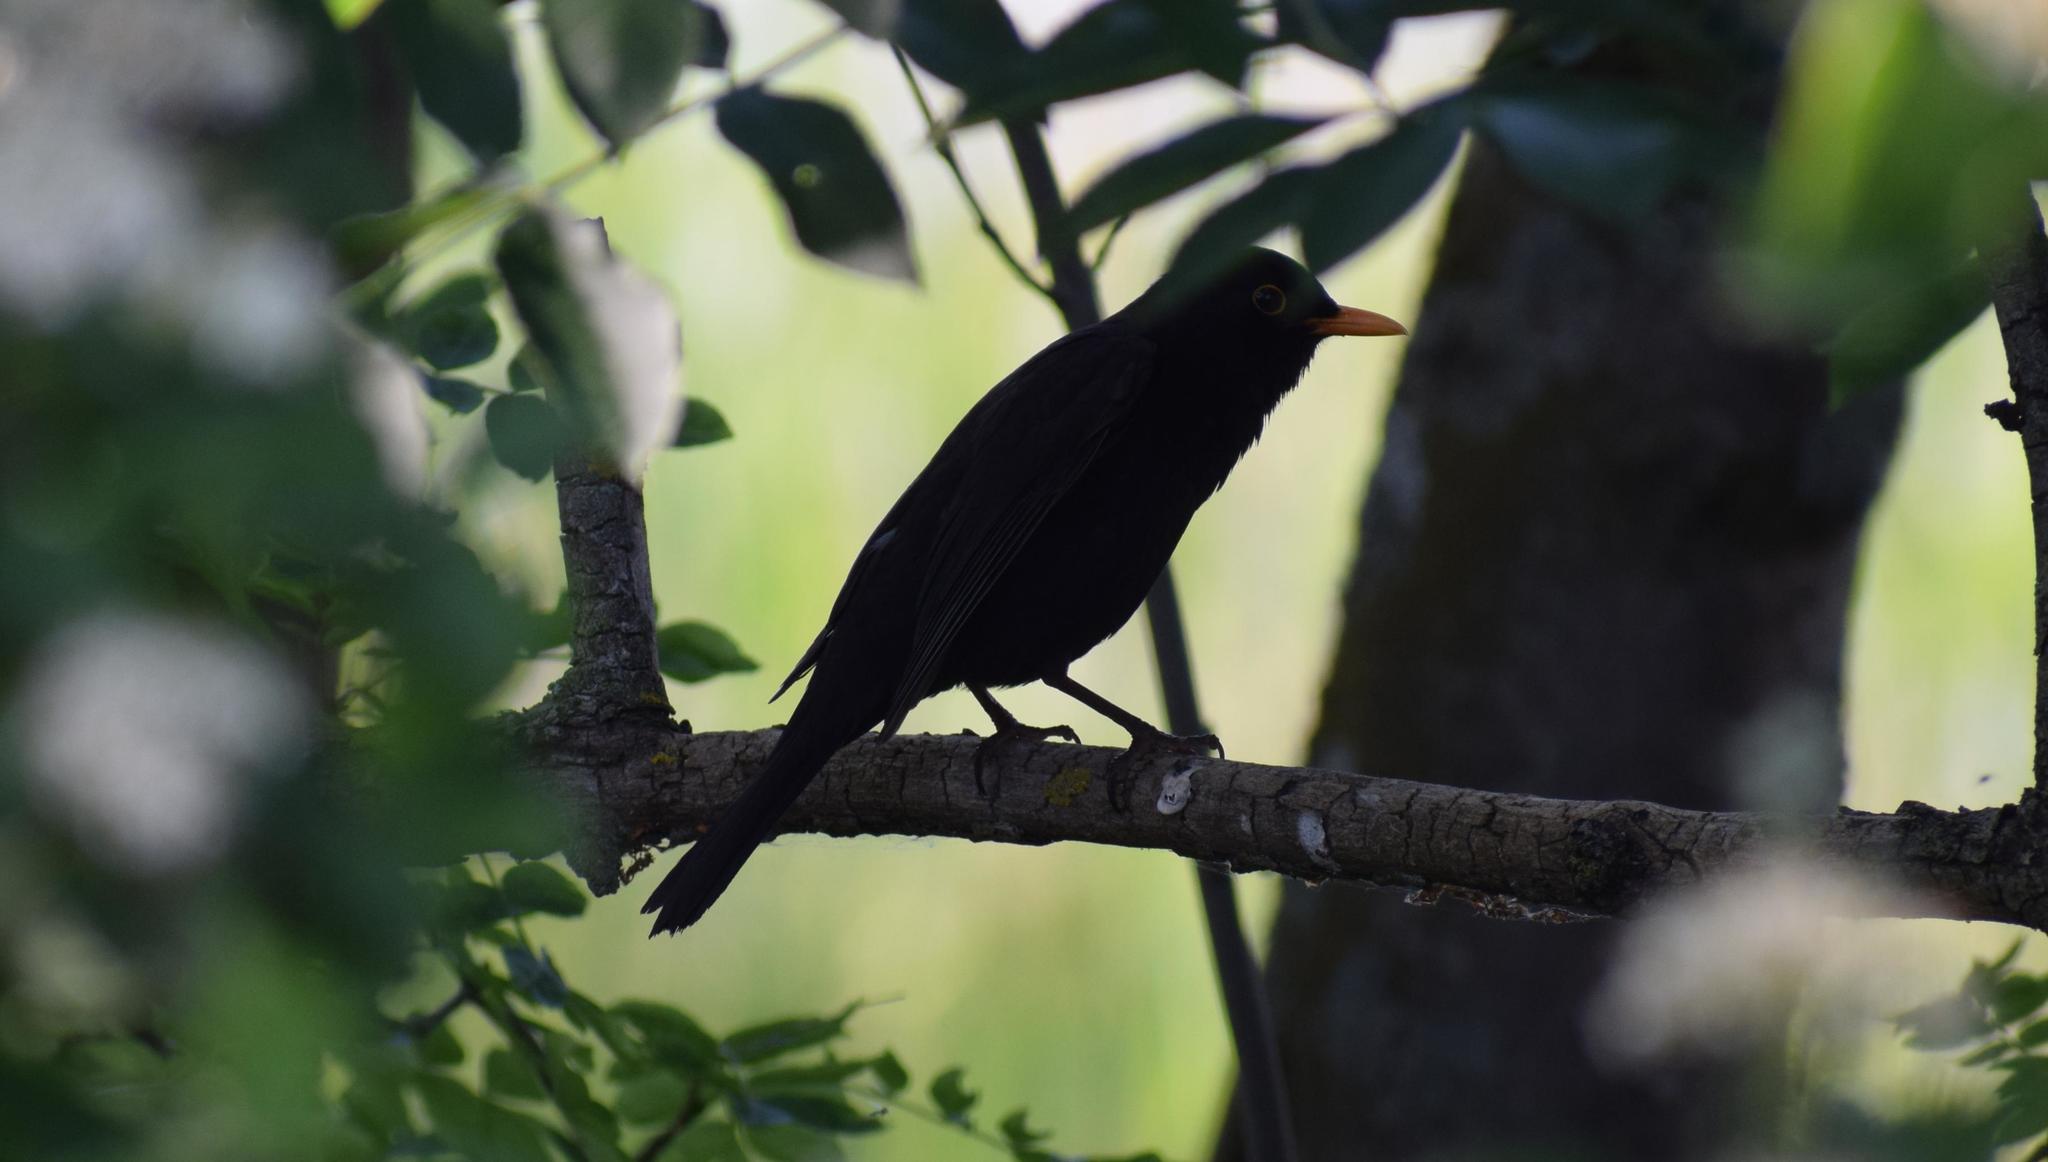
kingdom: Animalia
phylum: Chordata
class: Aves
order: Passeriformes
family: Turdidae
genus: Turdus
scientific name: Turdus merula
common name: Common blackbird
